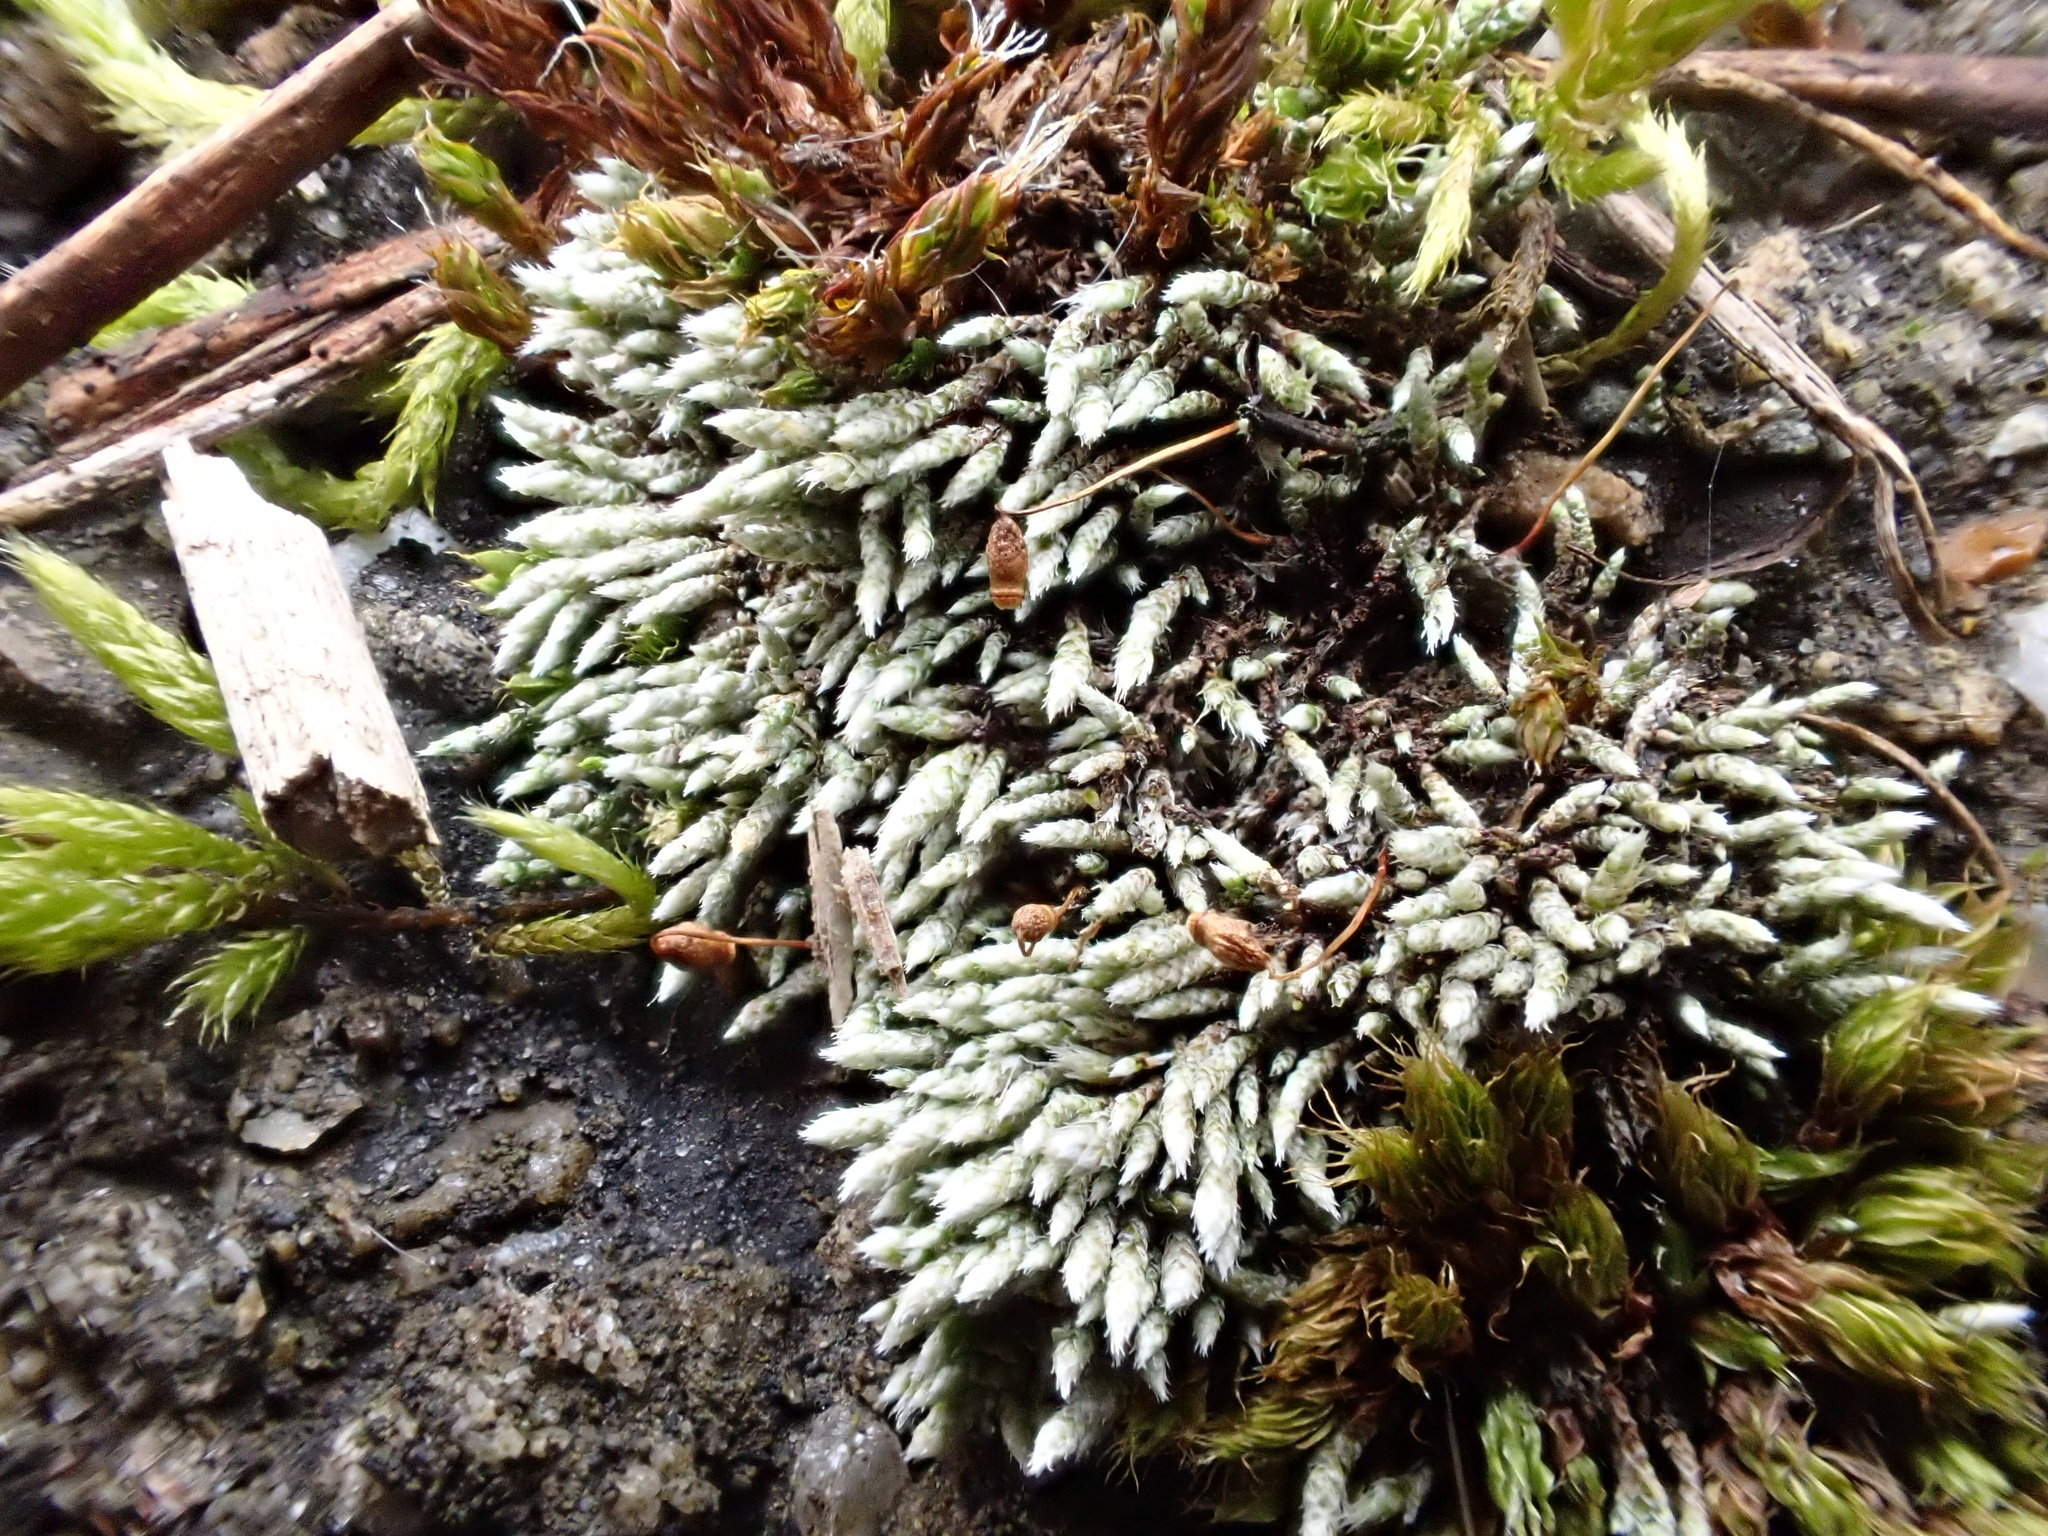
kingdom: Plantae
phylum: Bryophyta
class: Bryopsida
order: Bryales
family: Bryaceae
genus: Bryum
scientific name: Bryum argenteum
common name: Silver-moss
